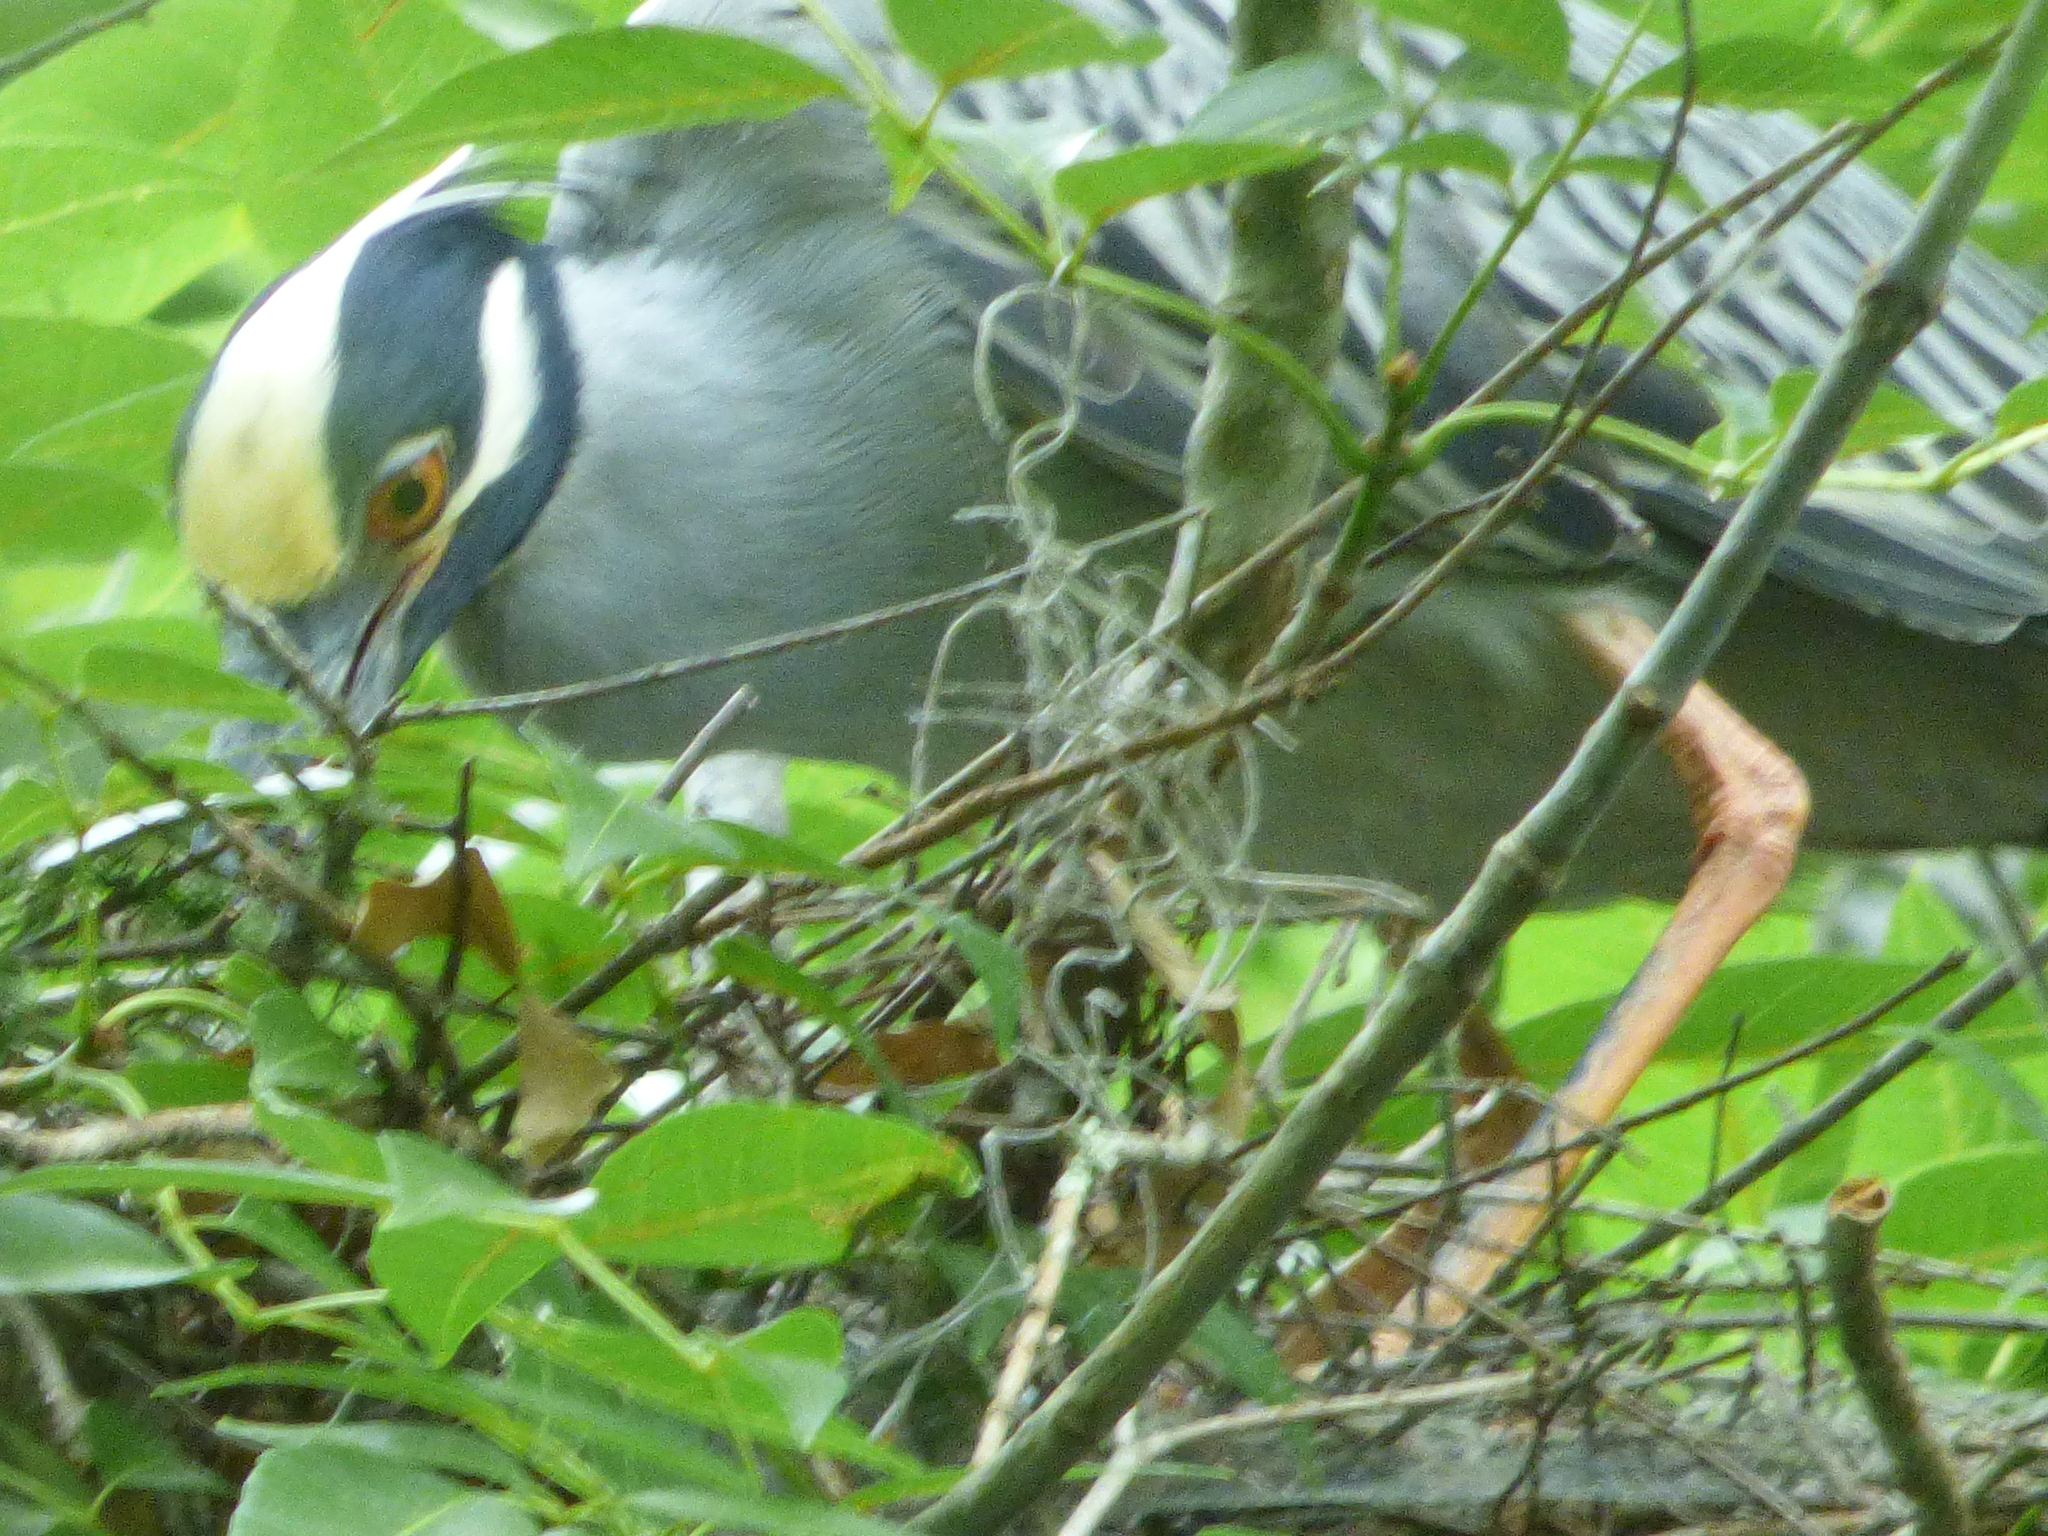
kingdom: Animalia
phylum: Chordata
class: Aves
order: Pelecaniformes
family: Ardeidae
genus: Nyctanassa
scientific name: Nyctanassa violacea
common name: Yellow-crowned night heron
